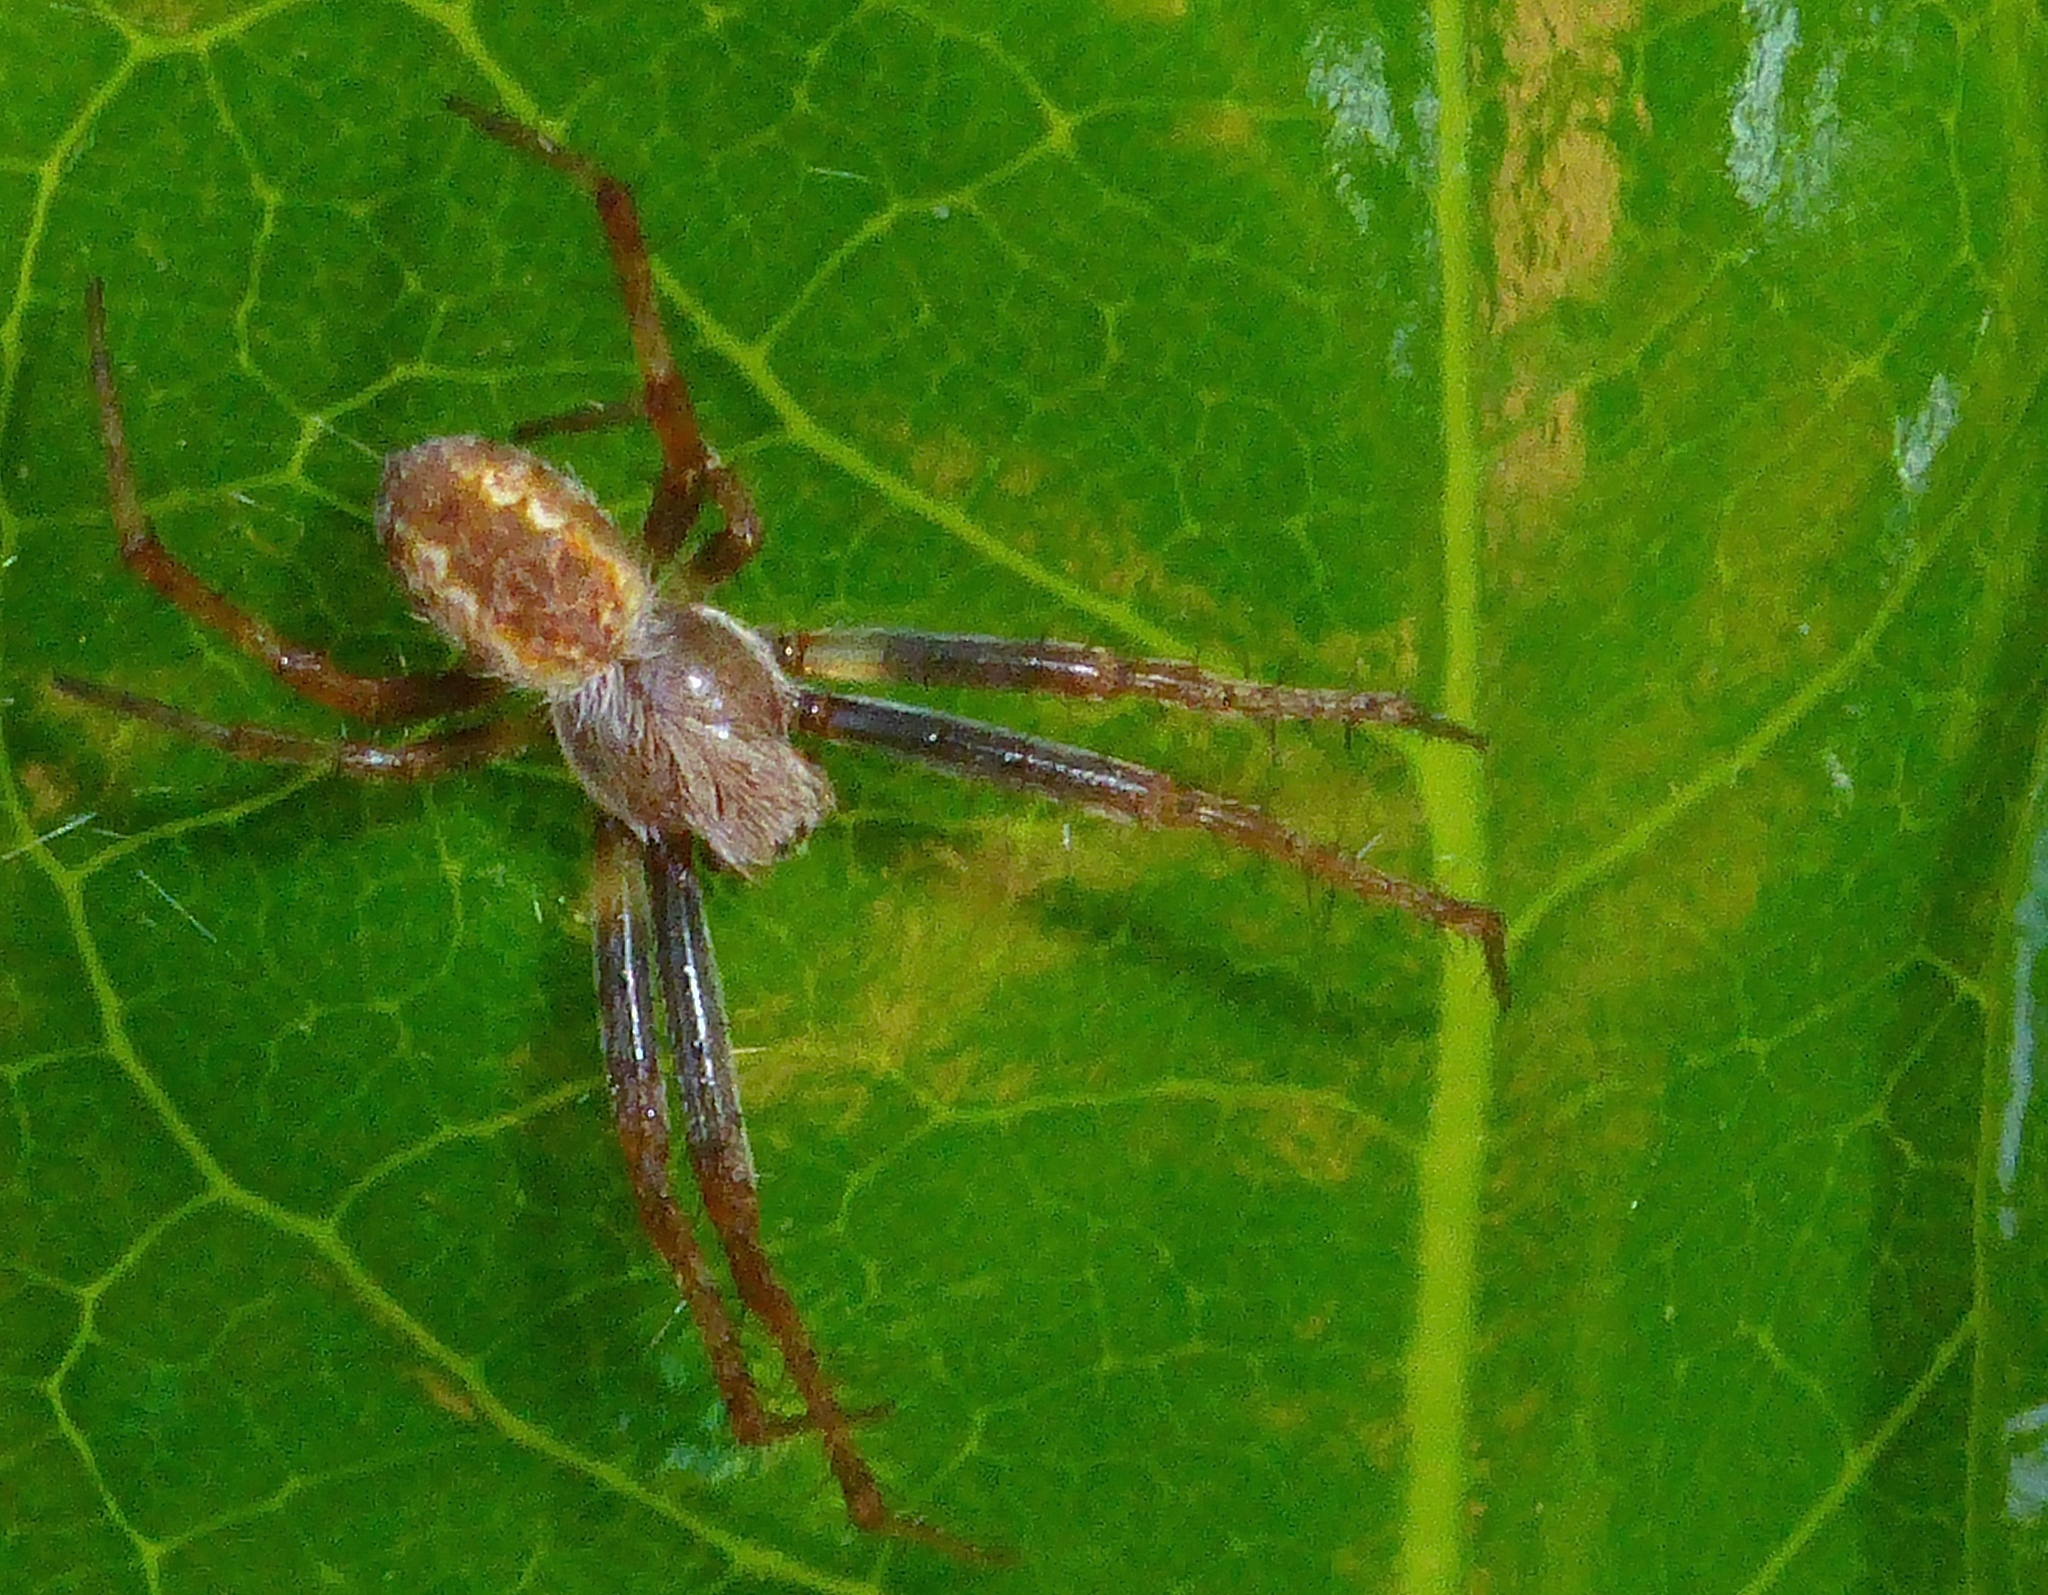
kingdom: Animalia
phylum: Arthropoda
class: Arachnida
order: Araneae
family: Araneidae
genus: Novaranea
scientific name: Novaranea queribunda
